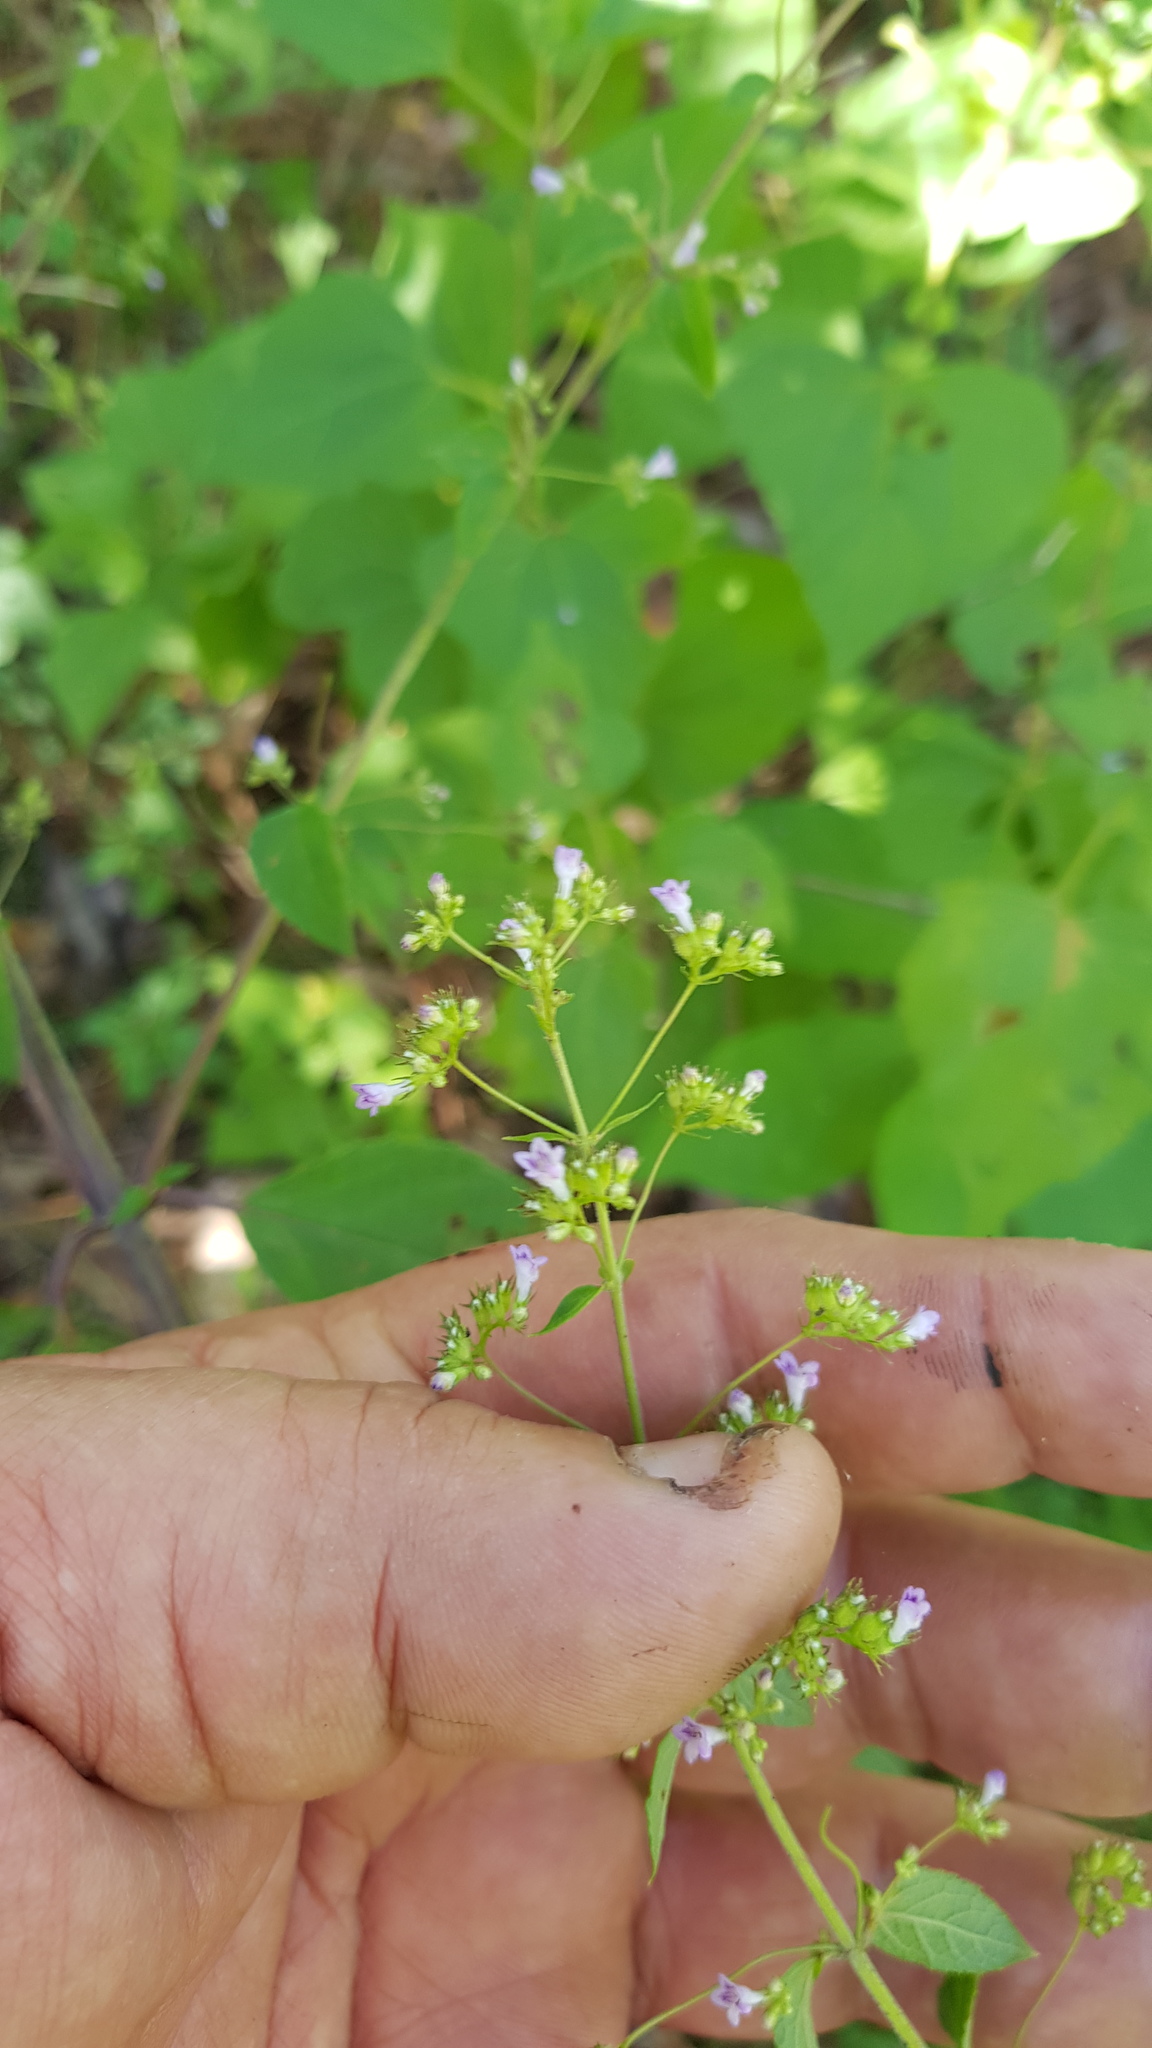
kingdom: Plantae
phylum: Tracheophyta
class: Magnoliopsida
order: Lamiales
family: Lamiaceae
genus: Mesosphaerum
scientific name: Mesosphaerum urticoides
